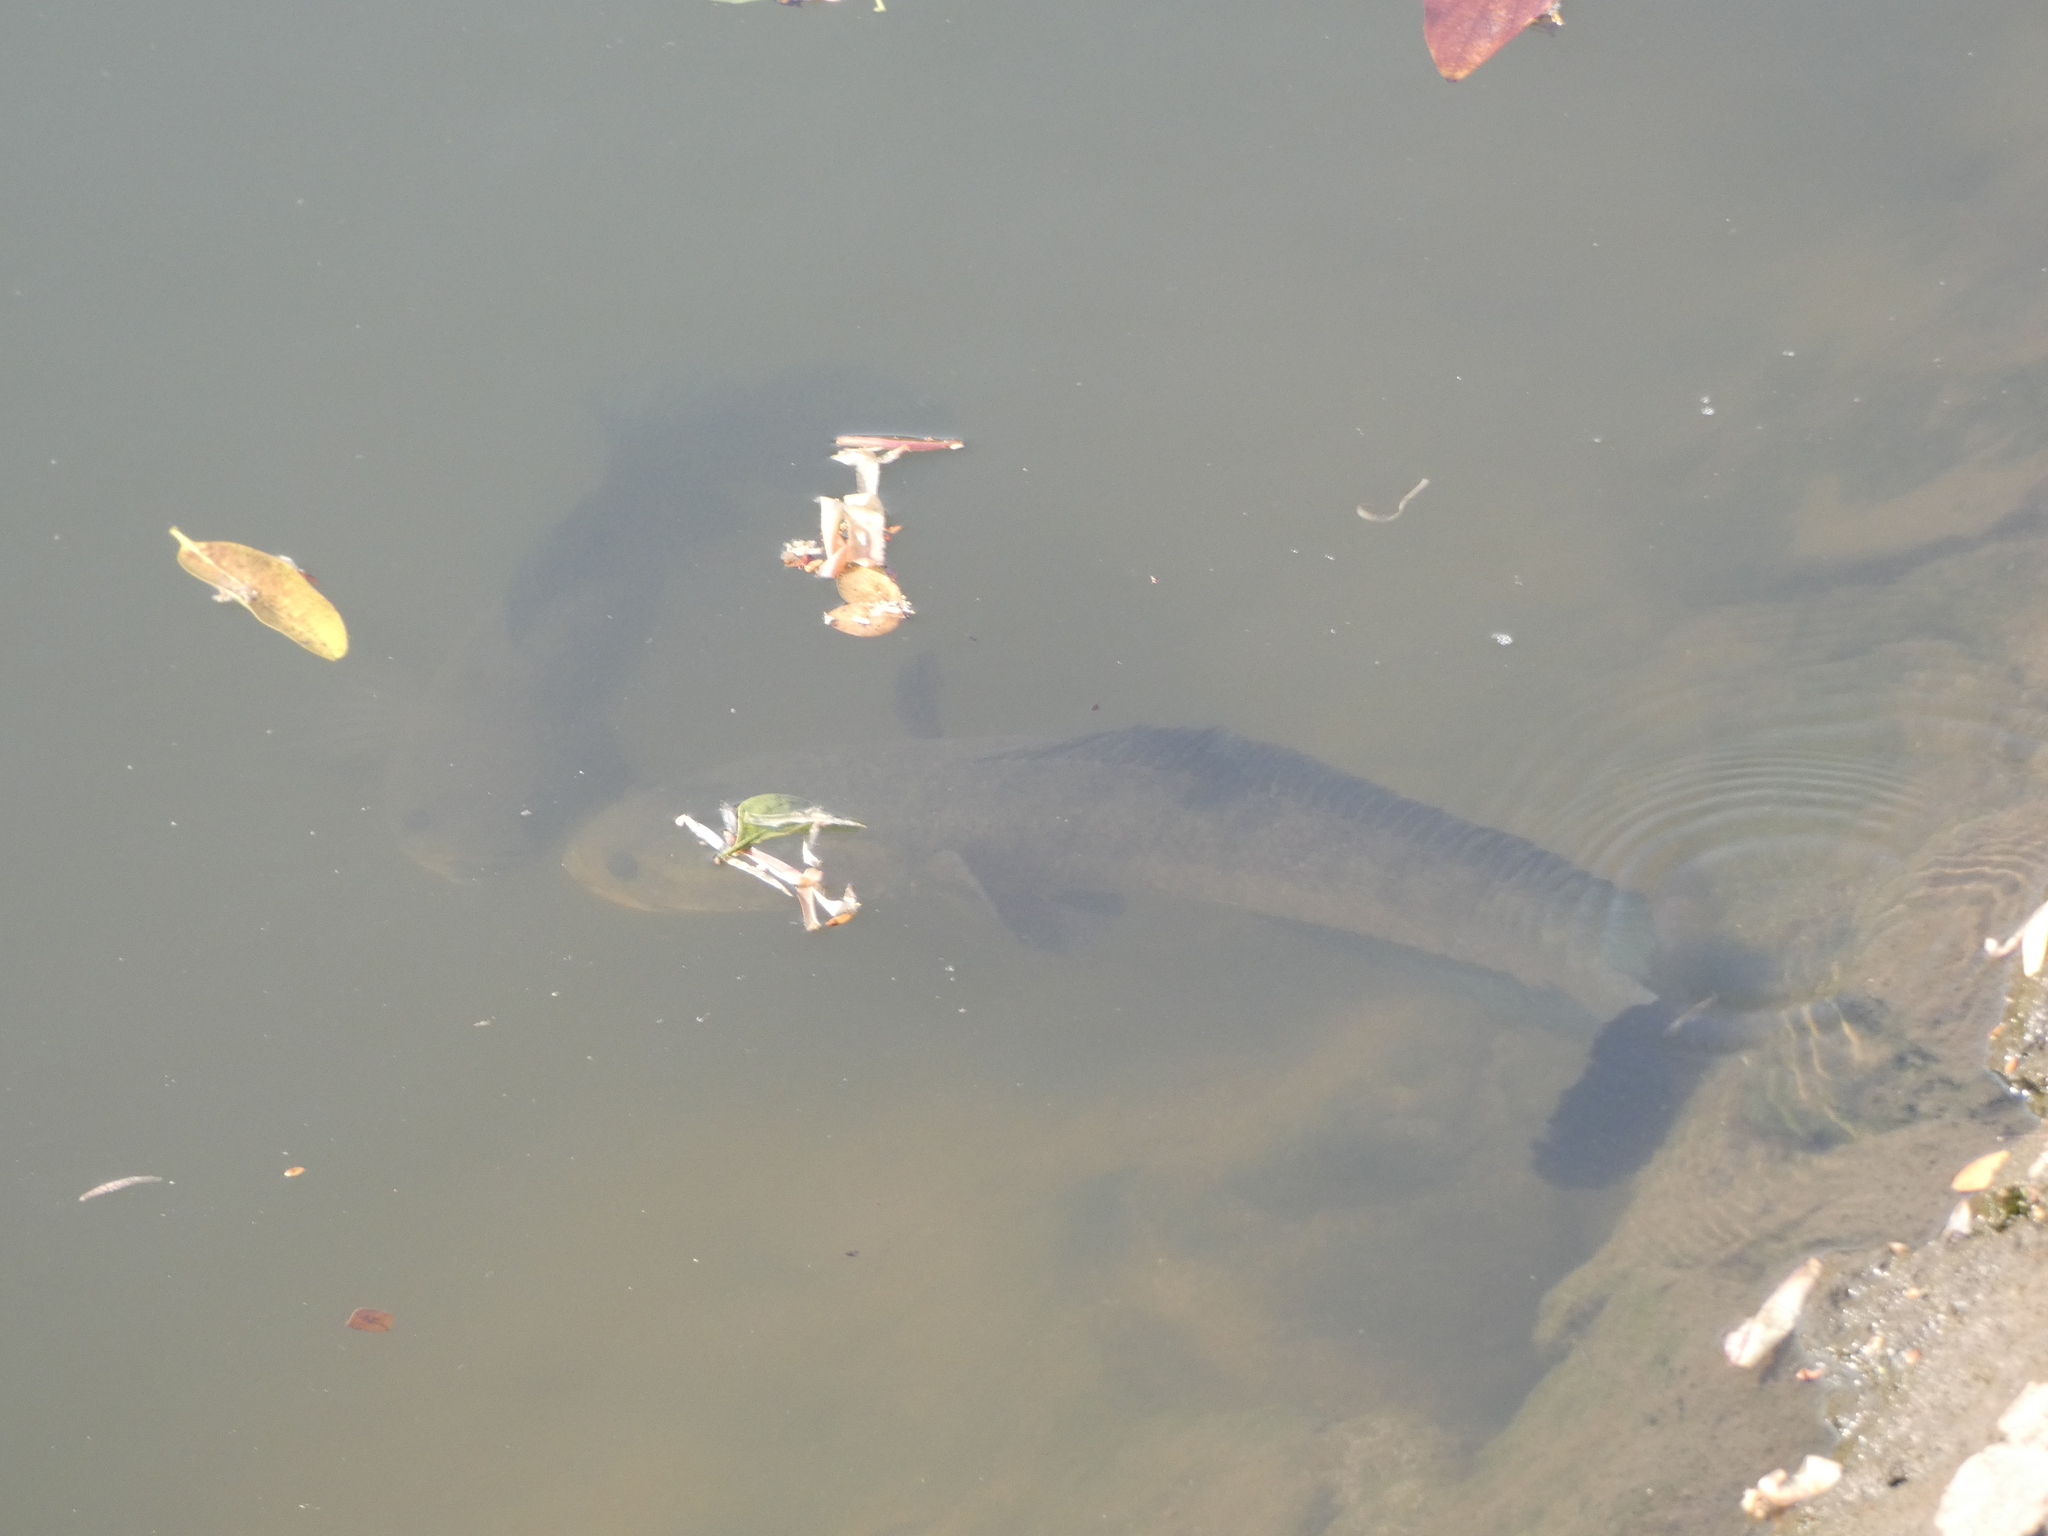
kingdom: Animalia
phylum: Chordata
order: Perciformes
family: Channidae
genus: Channa
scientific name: Channa striata
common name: Striped snakehead
